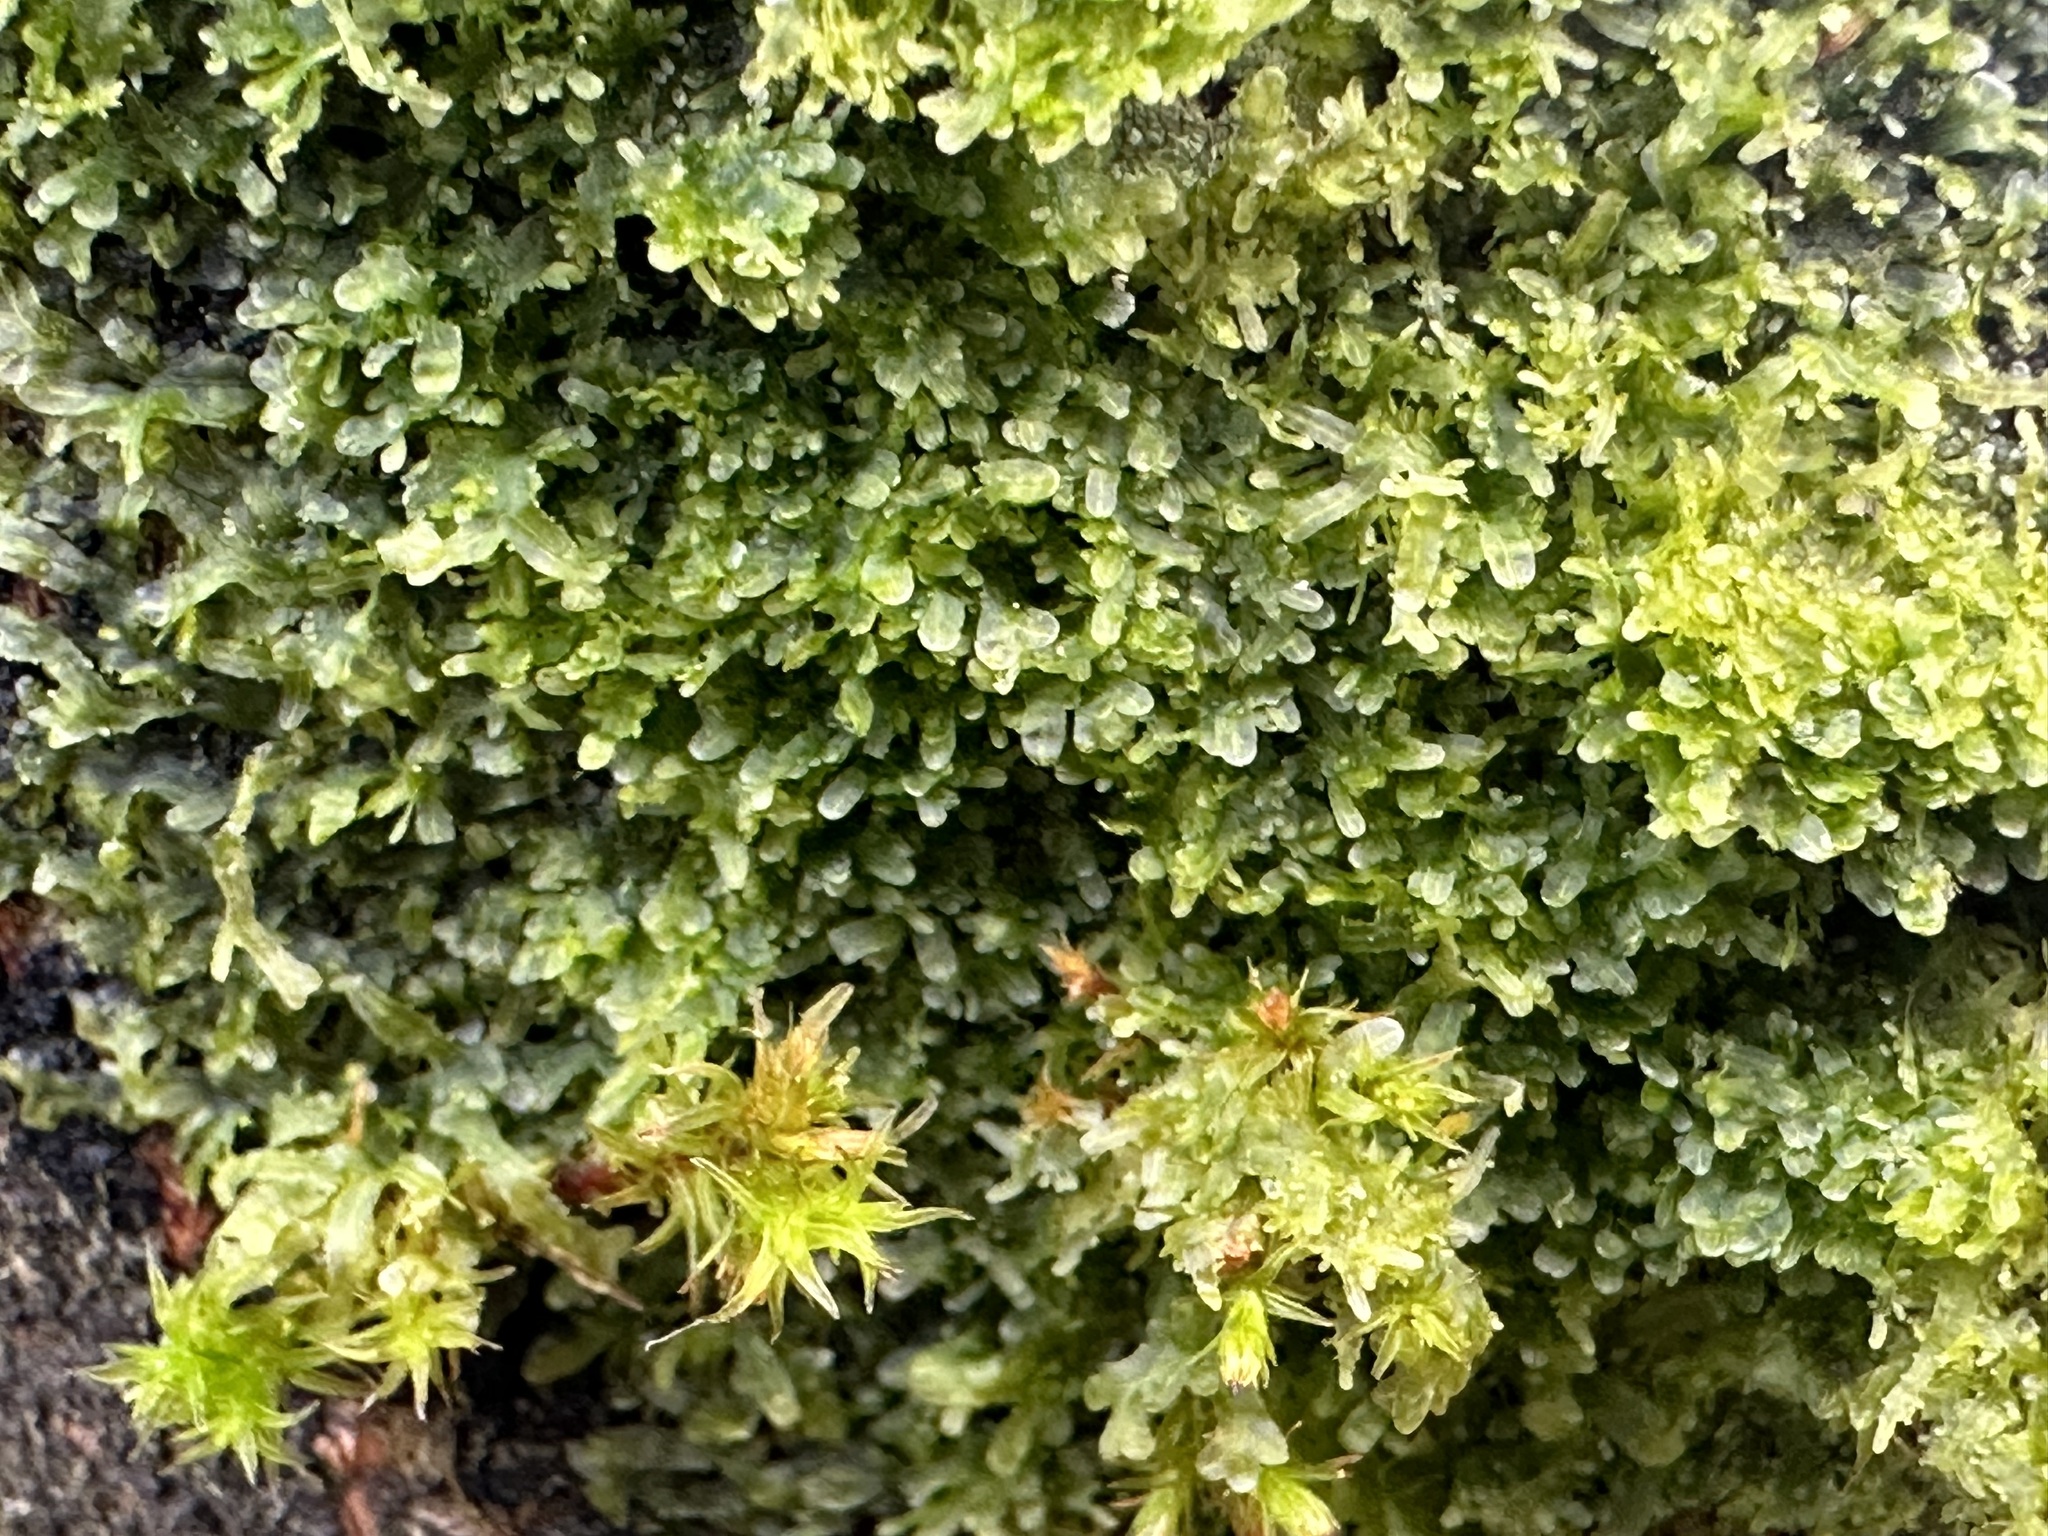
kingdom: Plantae
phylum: Marchantiophyta
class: Jungermanniopsida
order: Metzgeriales
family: Metzgeriaceae
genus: Metzgeria
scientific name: Metzgeria furcata
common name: Forked veilwort
